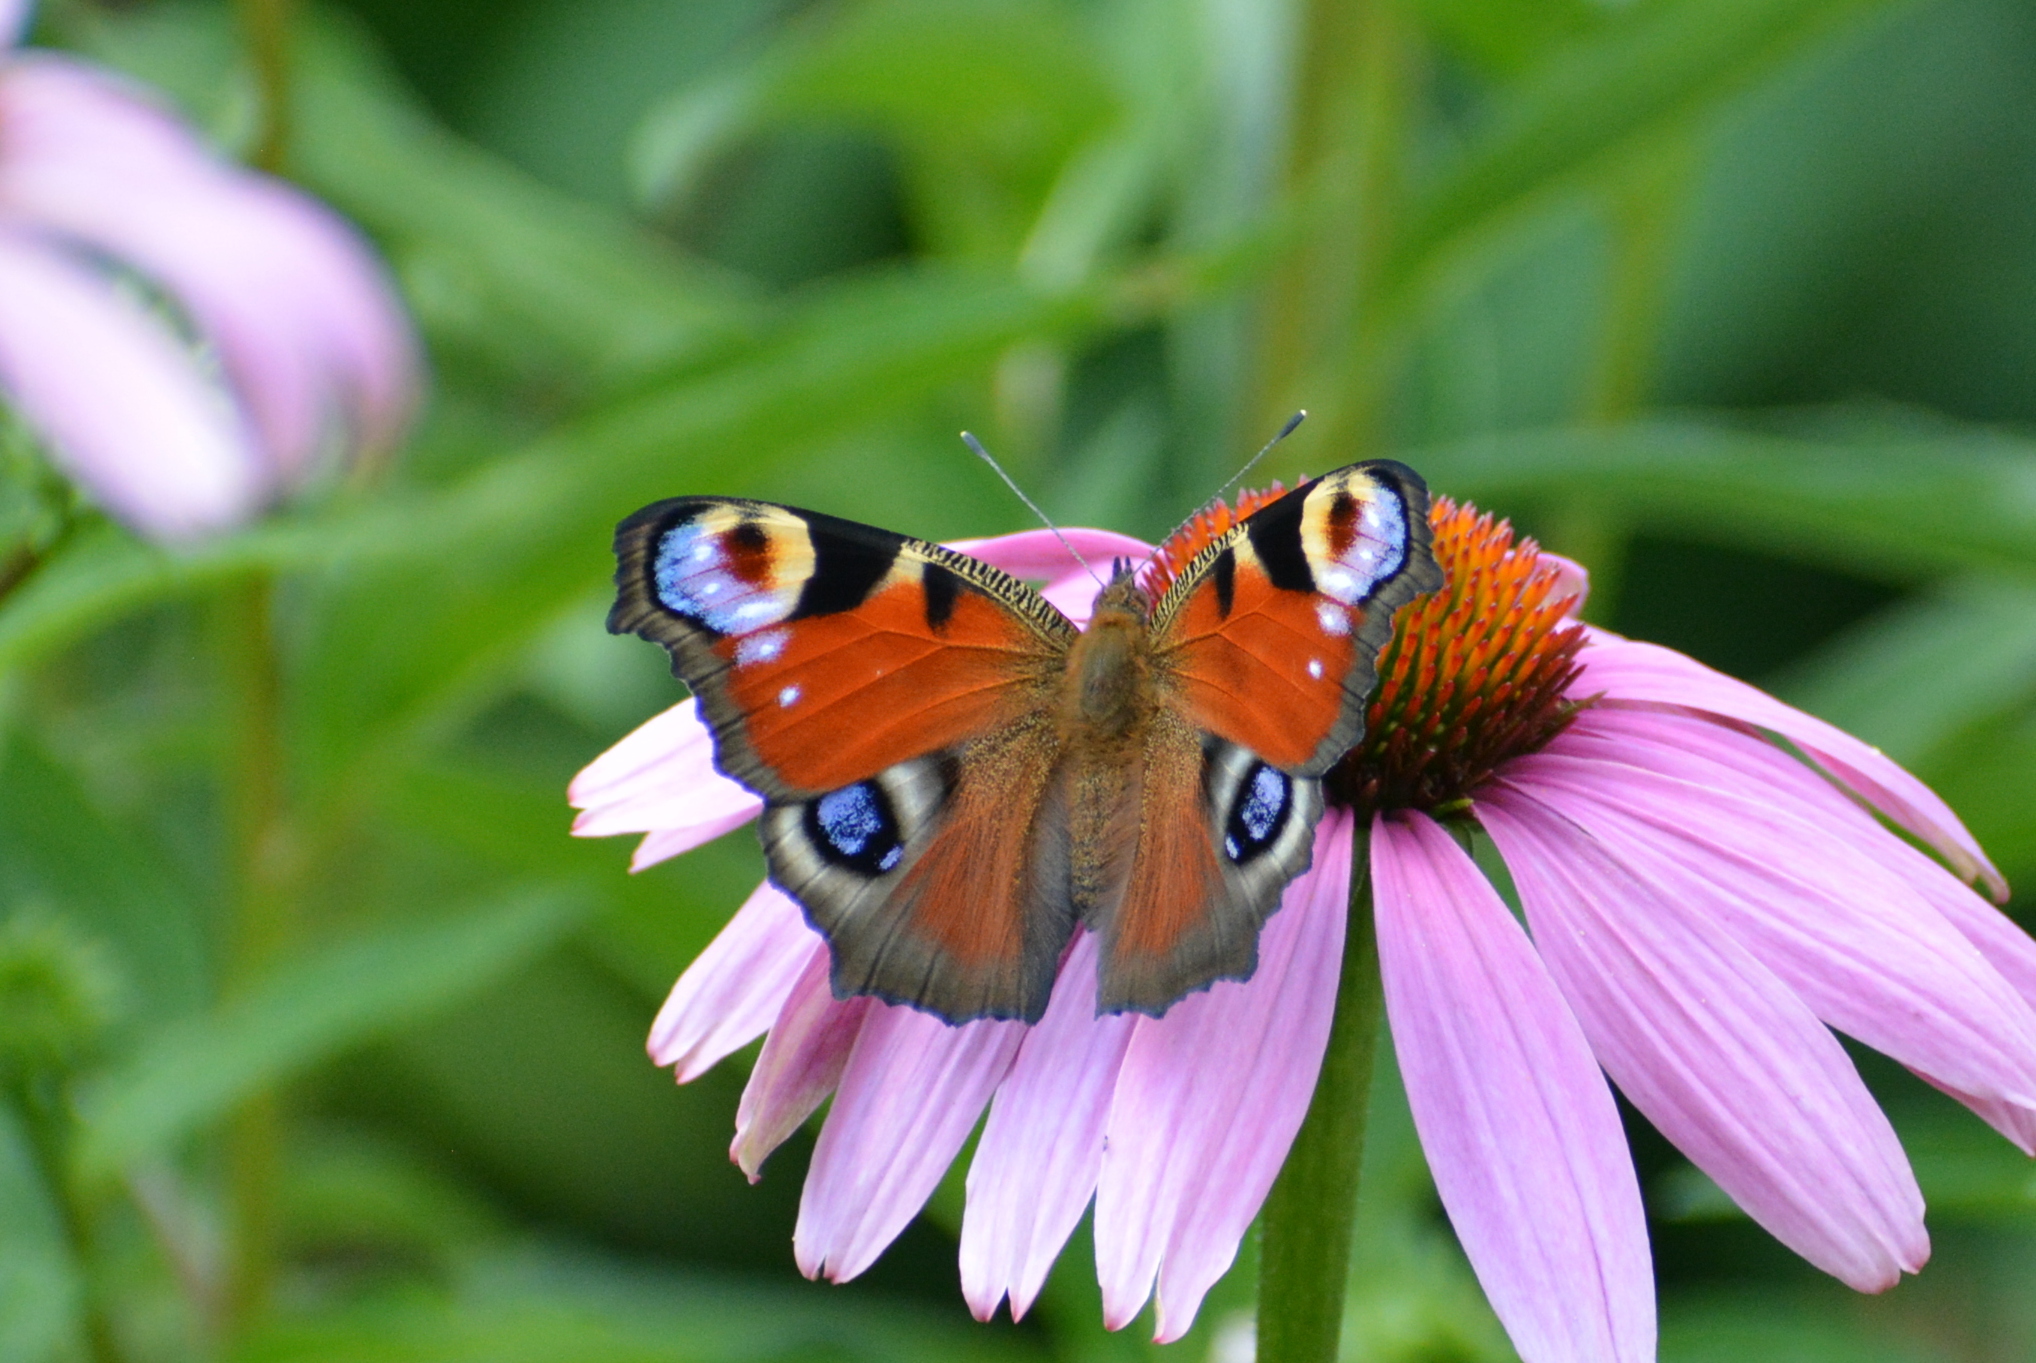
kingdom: Animalia
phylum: Arthropoda
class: Insecta
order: Lepidoptera
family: Nymphalidae
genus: Aglais
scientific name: Aglais io
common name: Peacock
